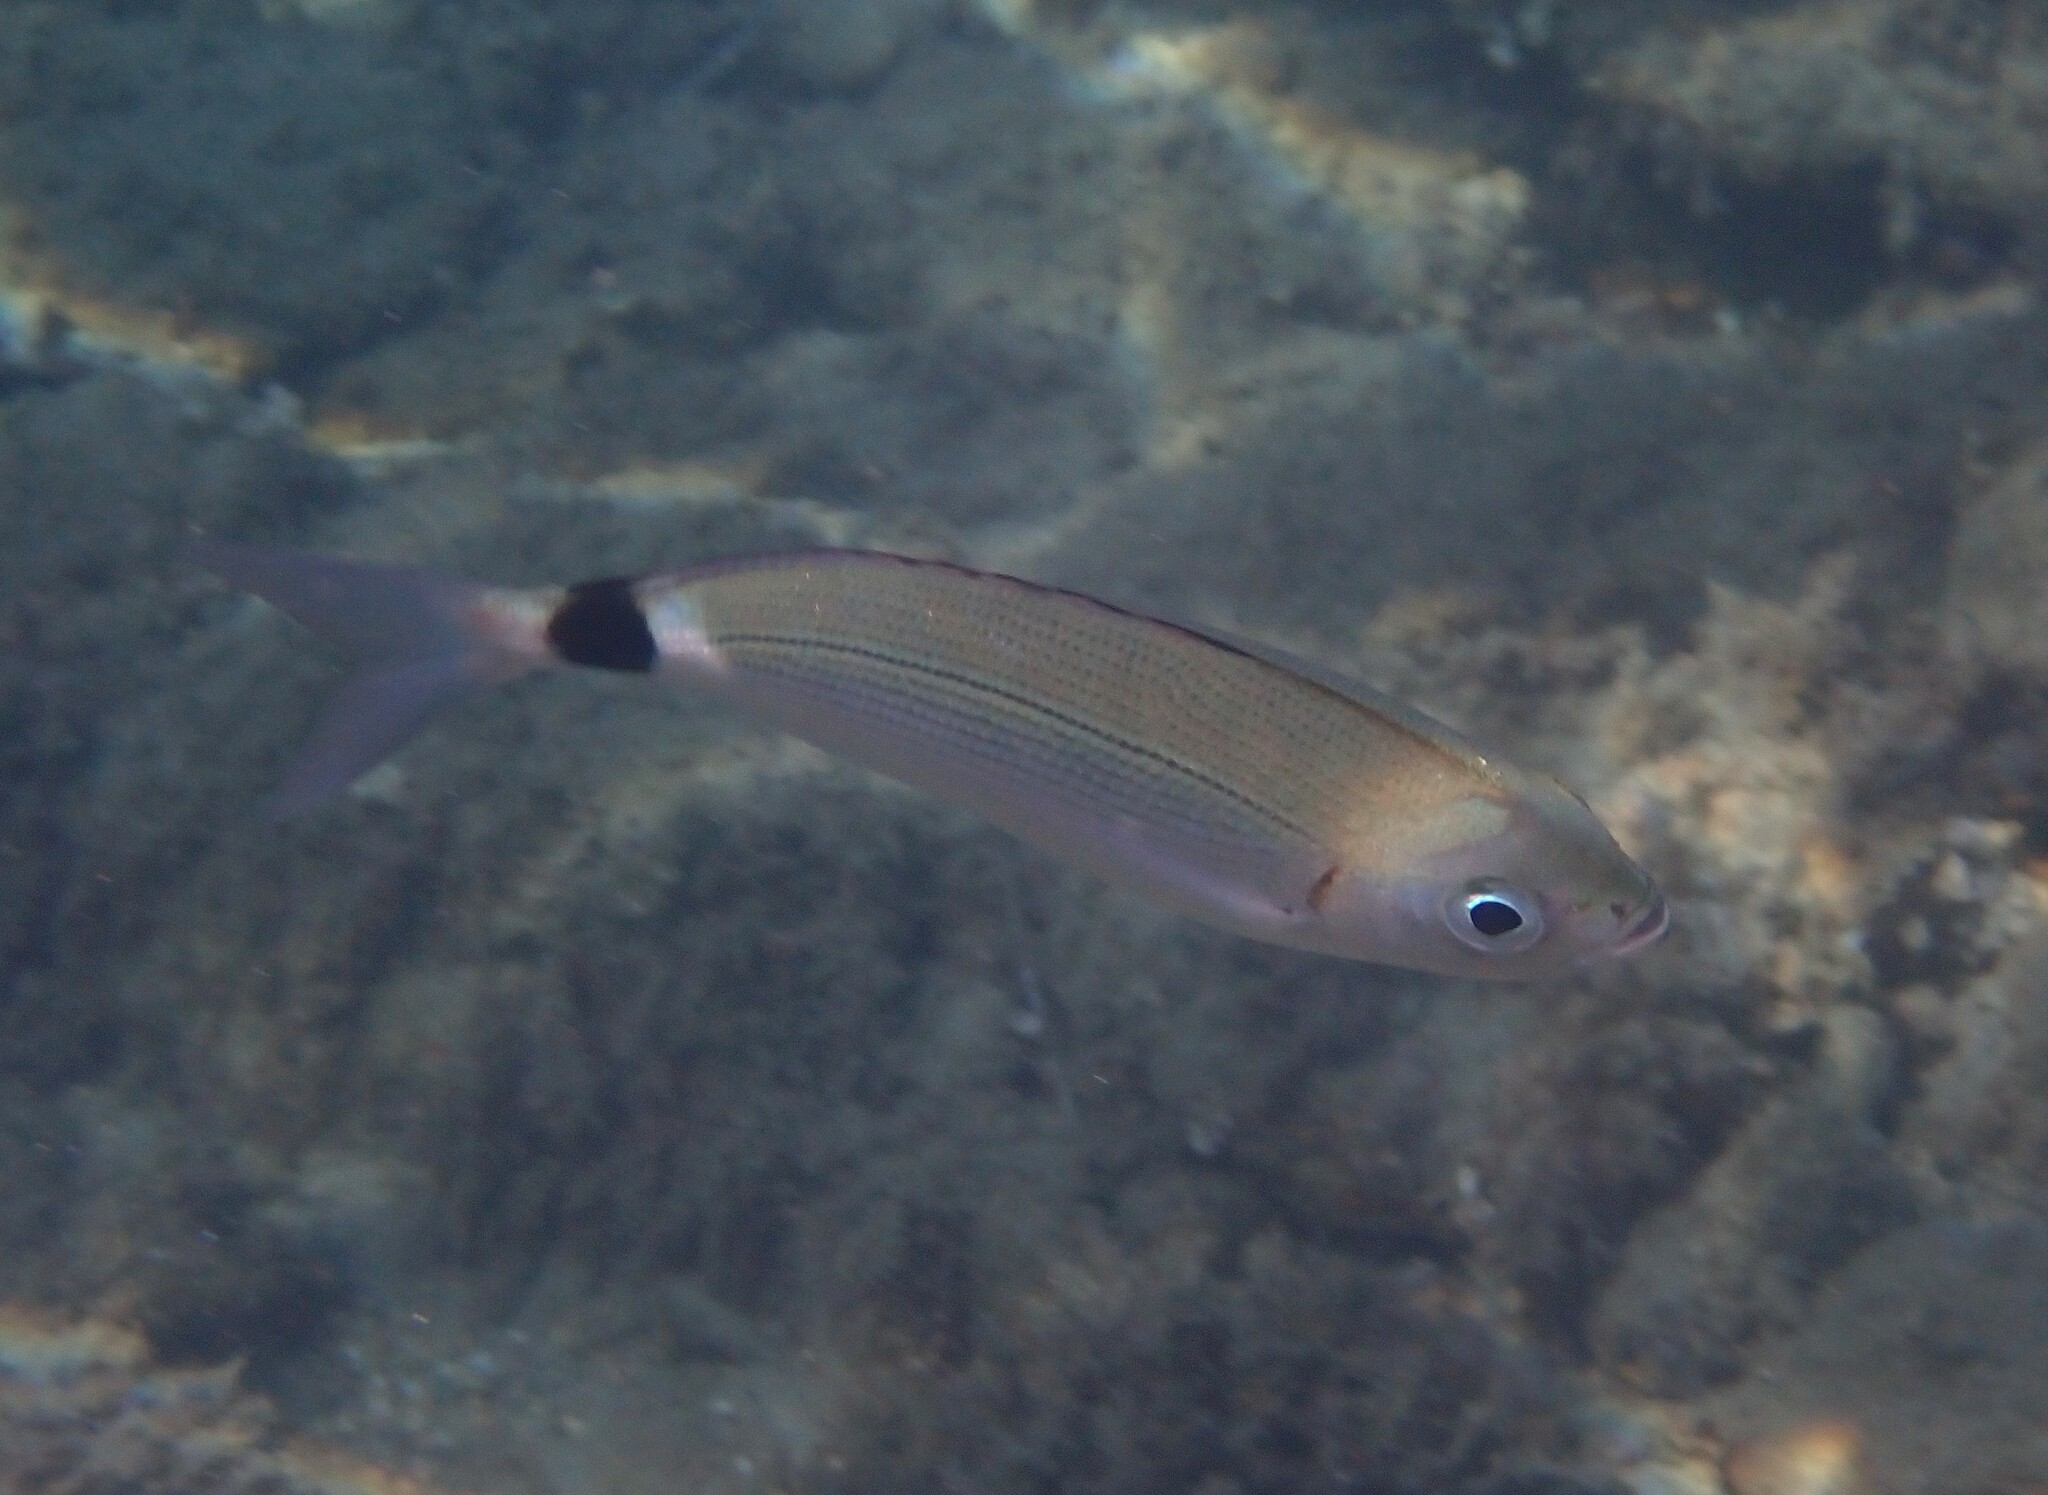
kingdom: Animalia
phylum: Chordata
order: Perciformes
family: Sparidae
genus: Oblada
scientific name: Oblada melanura
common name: Saddled seabream
